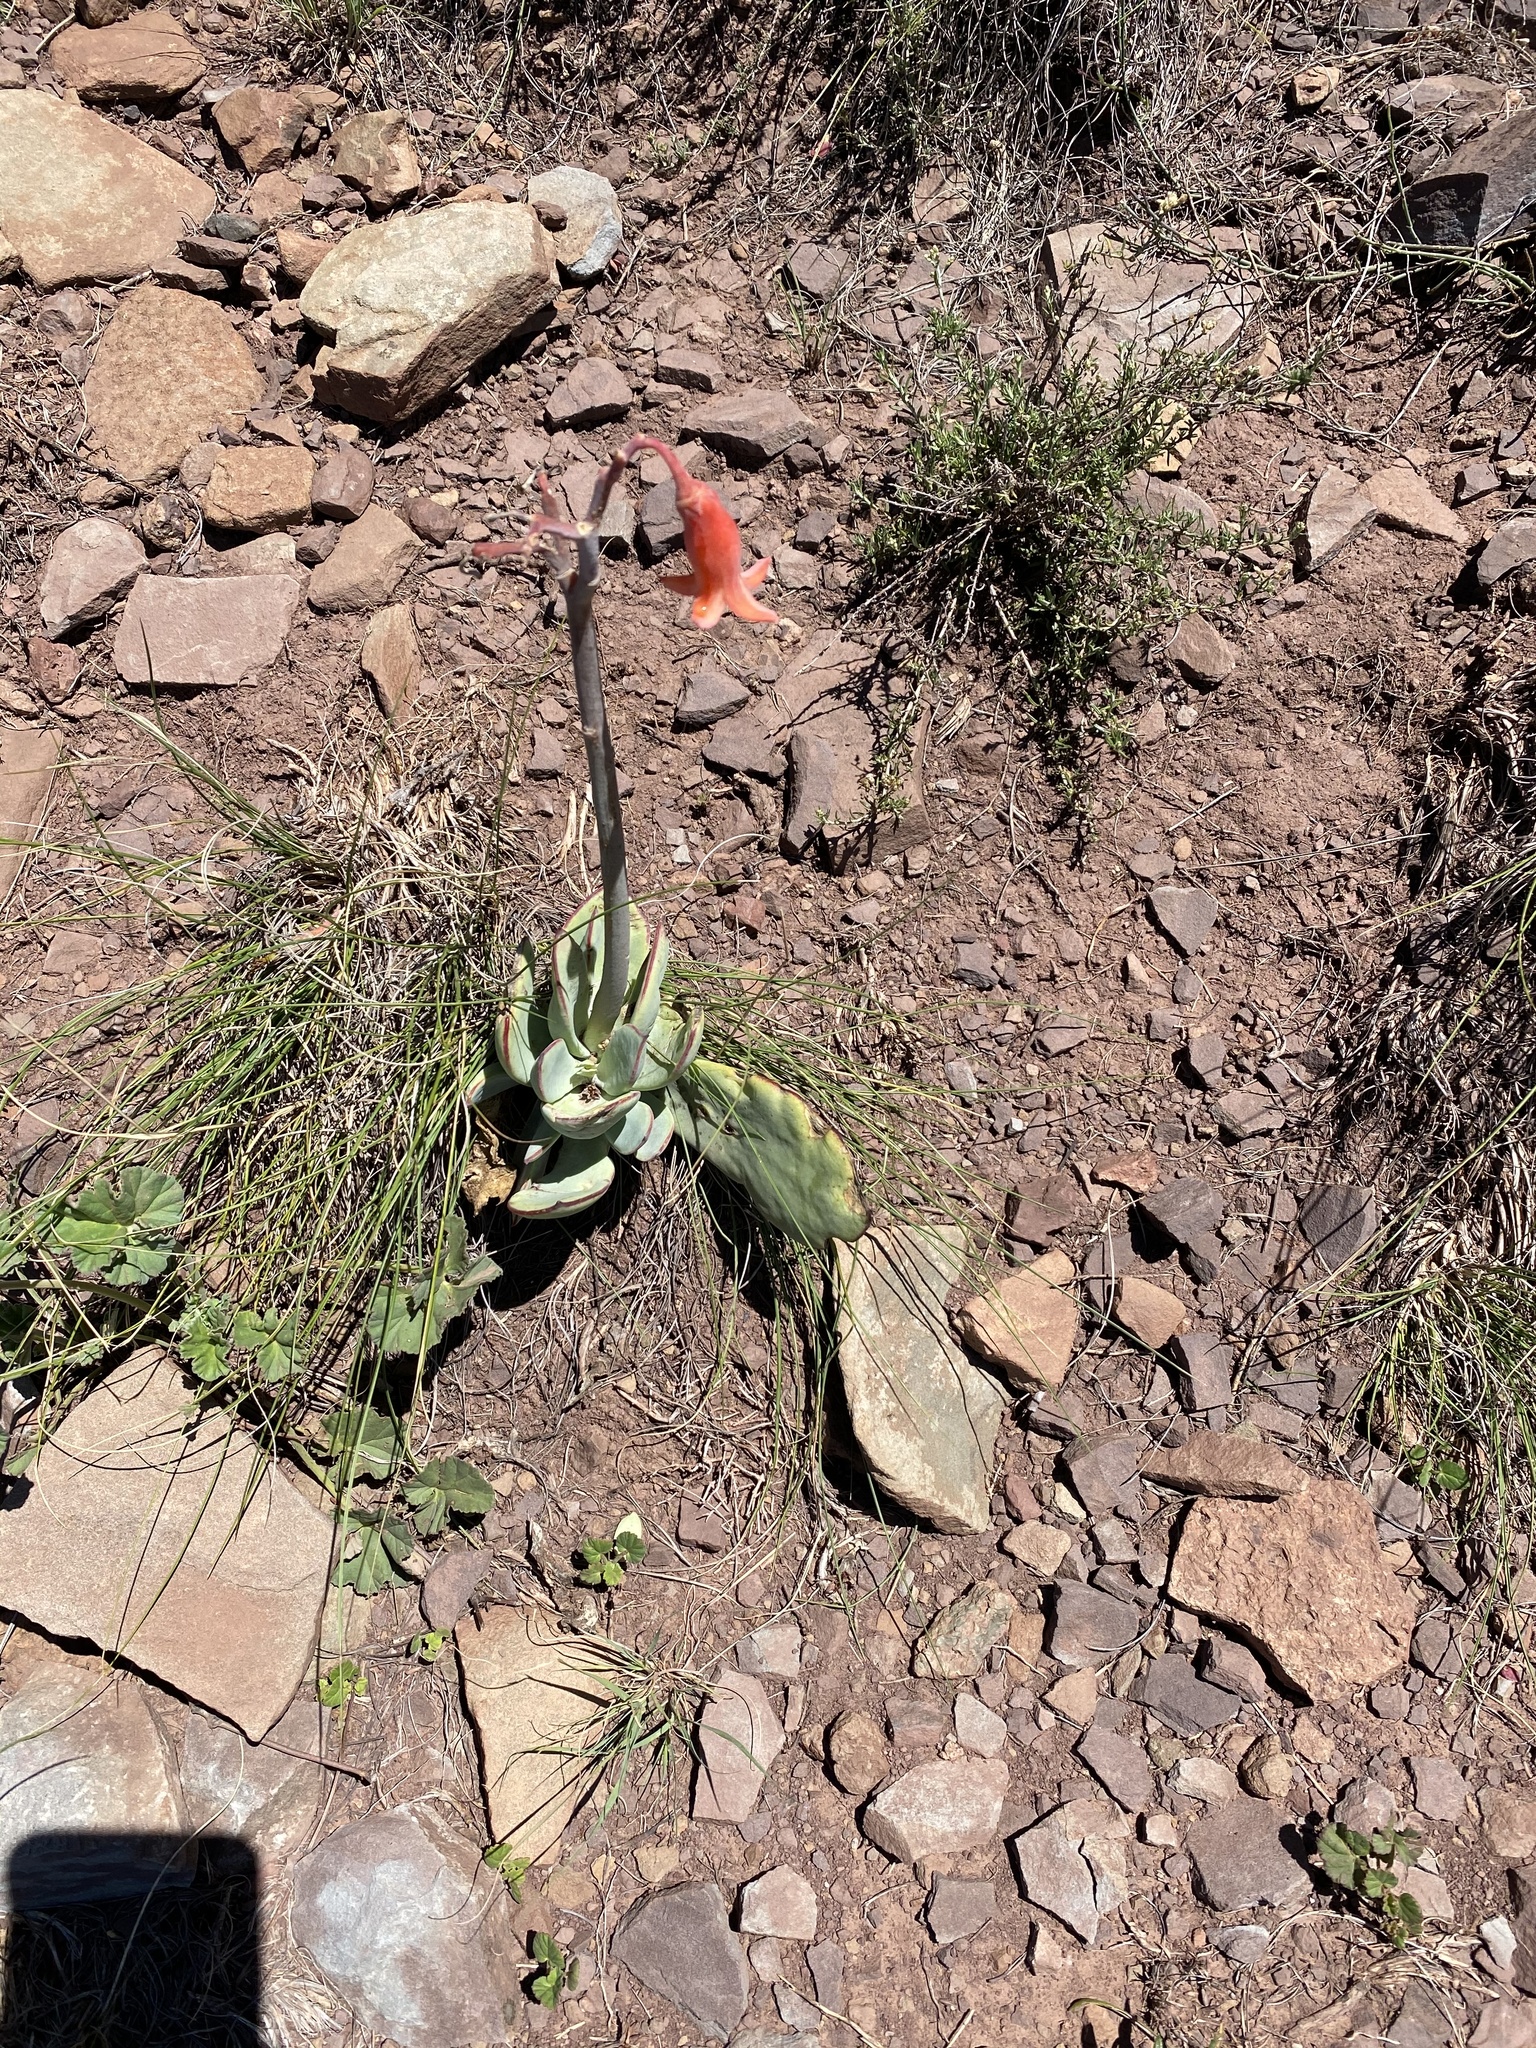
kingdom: Plantae
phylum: Tracheophyta
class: Magnoliopsida
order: Saxifragales
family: Crassulaceae
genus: Cotyledon
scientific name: Cotyledon orbiculata
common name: Pig's ear
